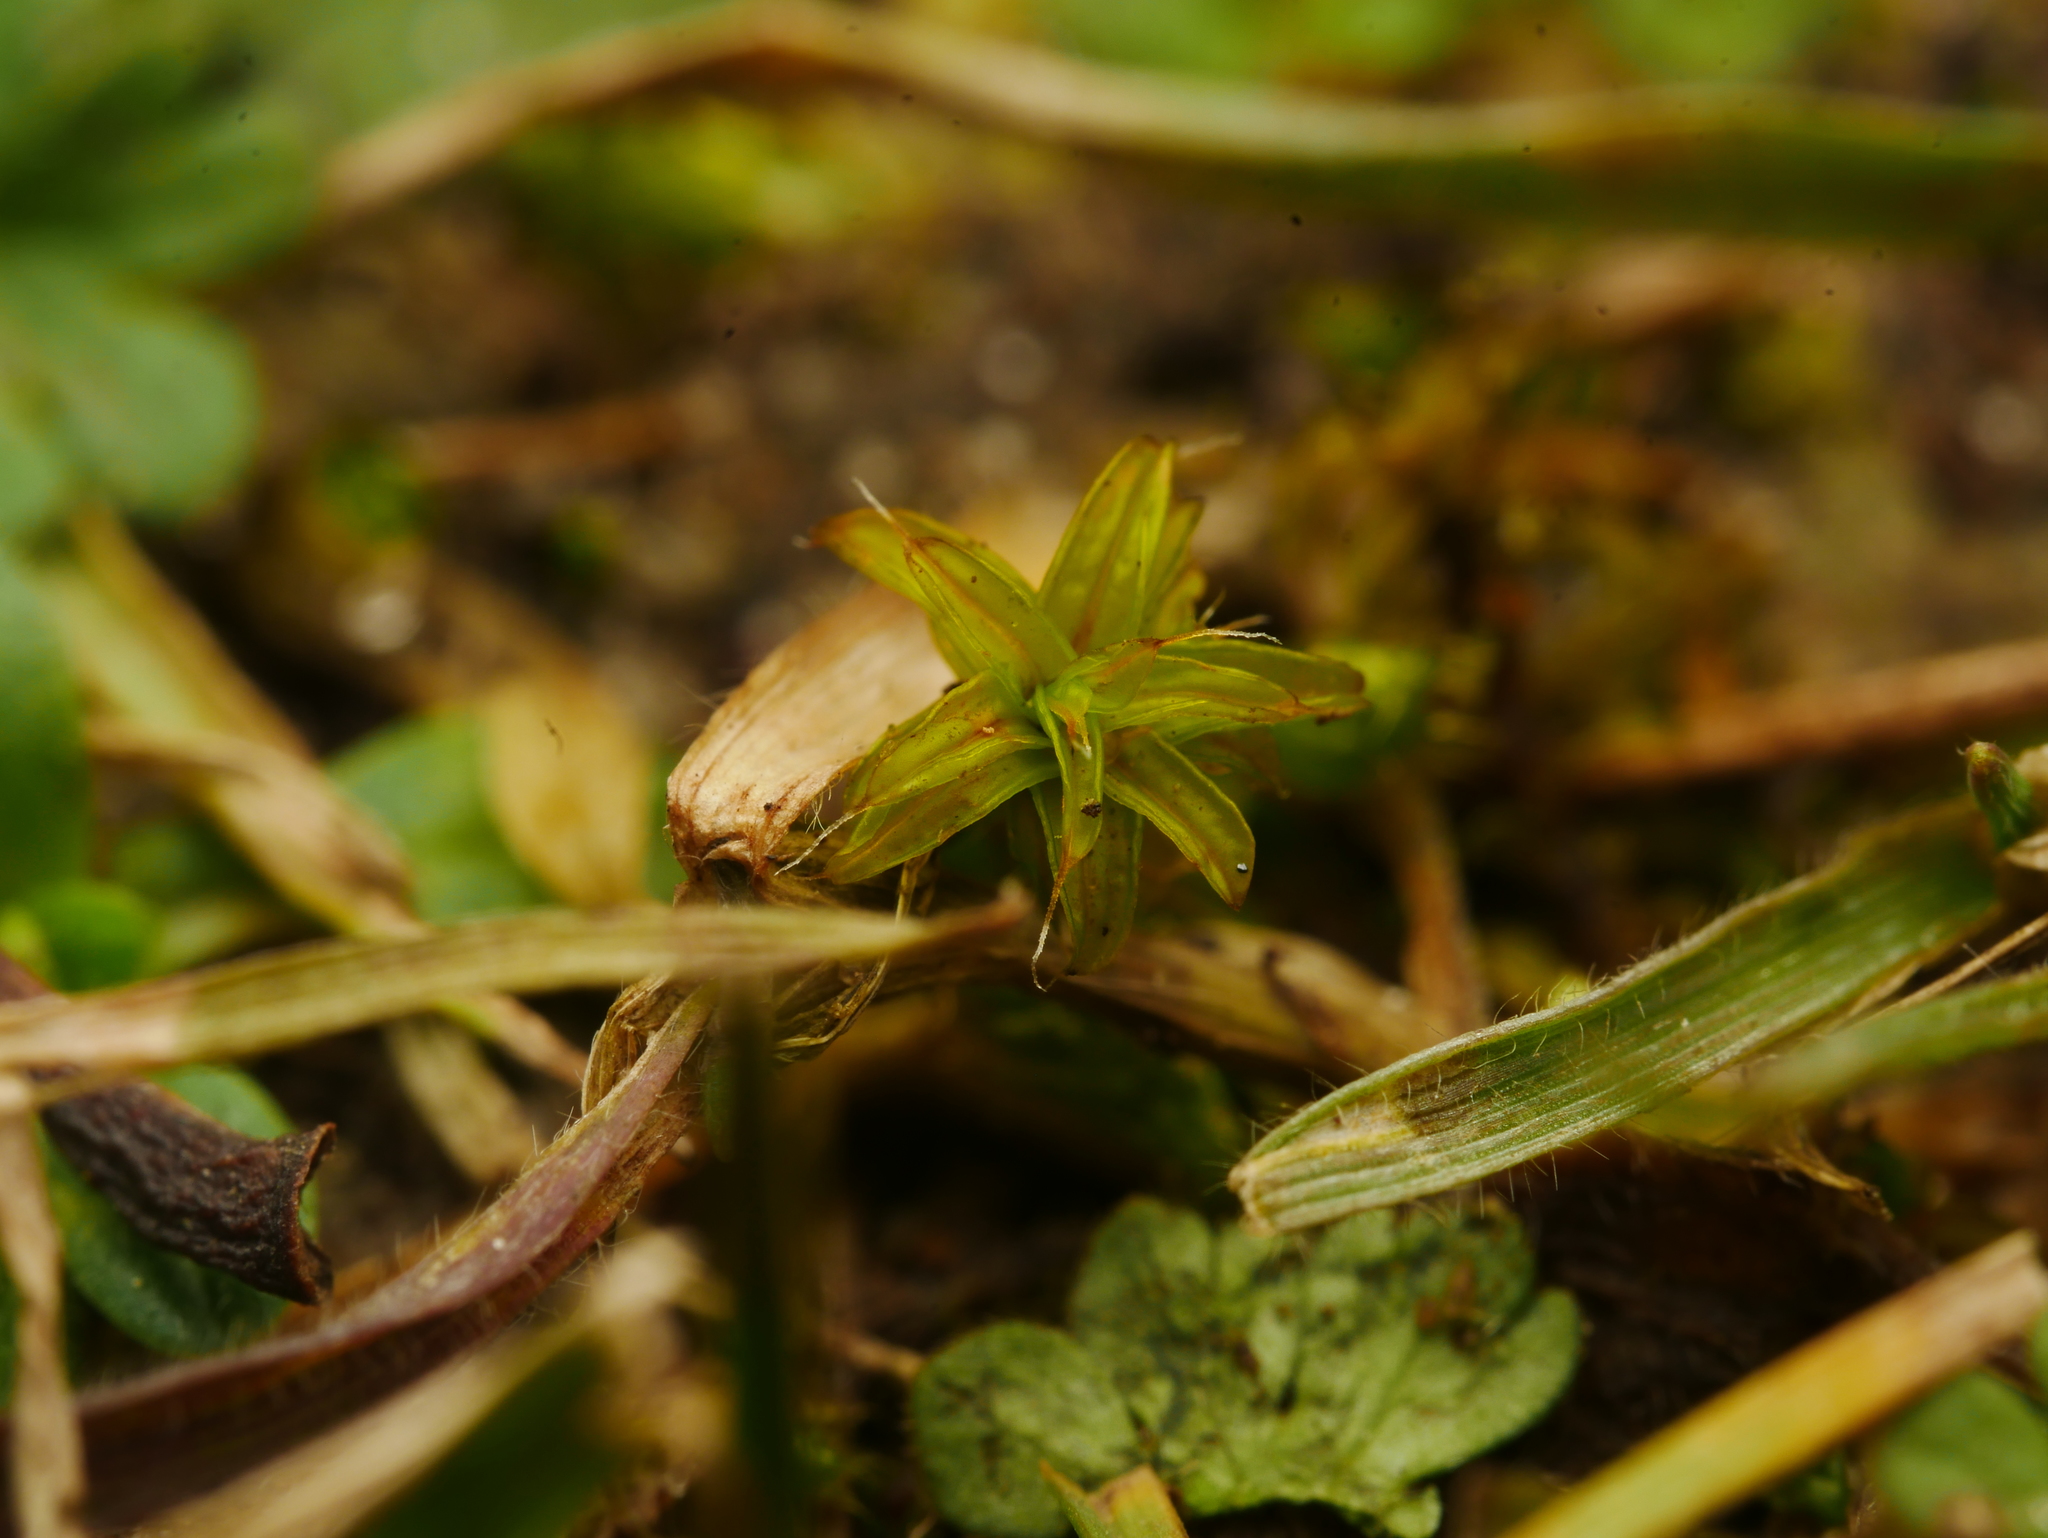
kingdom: Plantae
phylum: Bryophyta
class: Bryopsida
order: Pottiales
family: Pottiaceae
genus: Syntrichia
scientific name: Syntrichia ruralis
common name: Sidewalk screw moss
